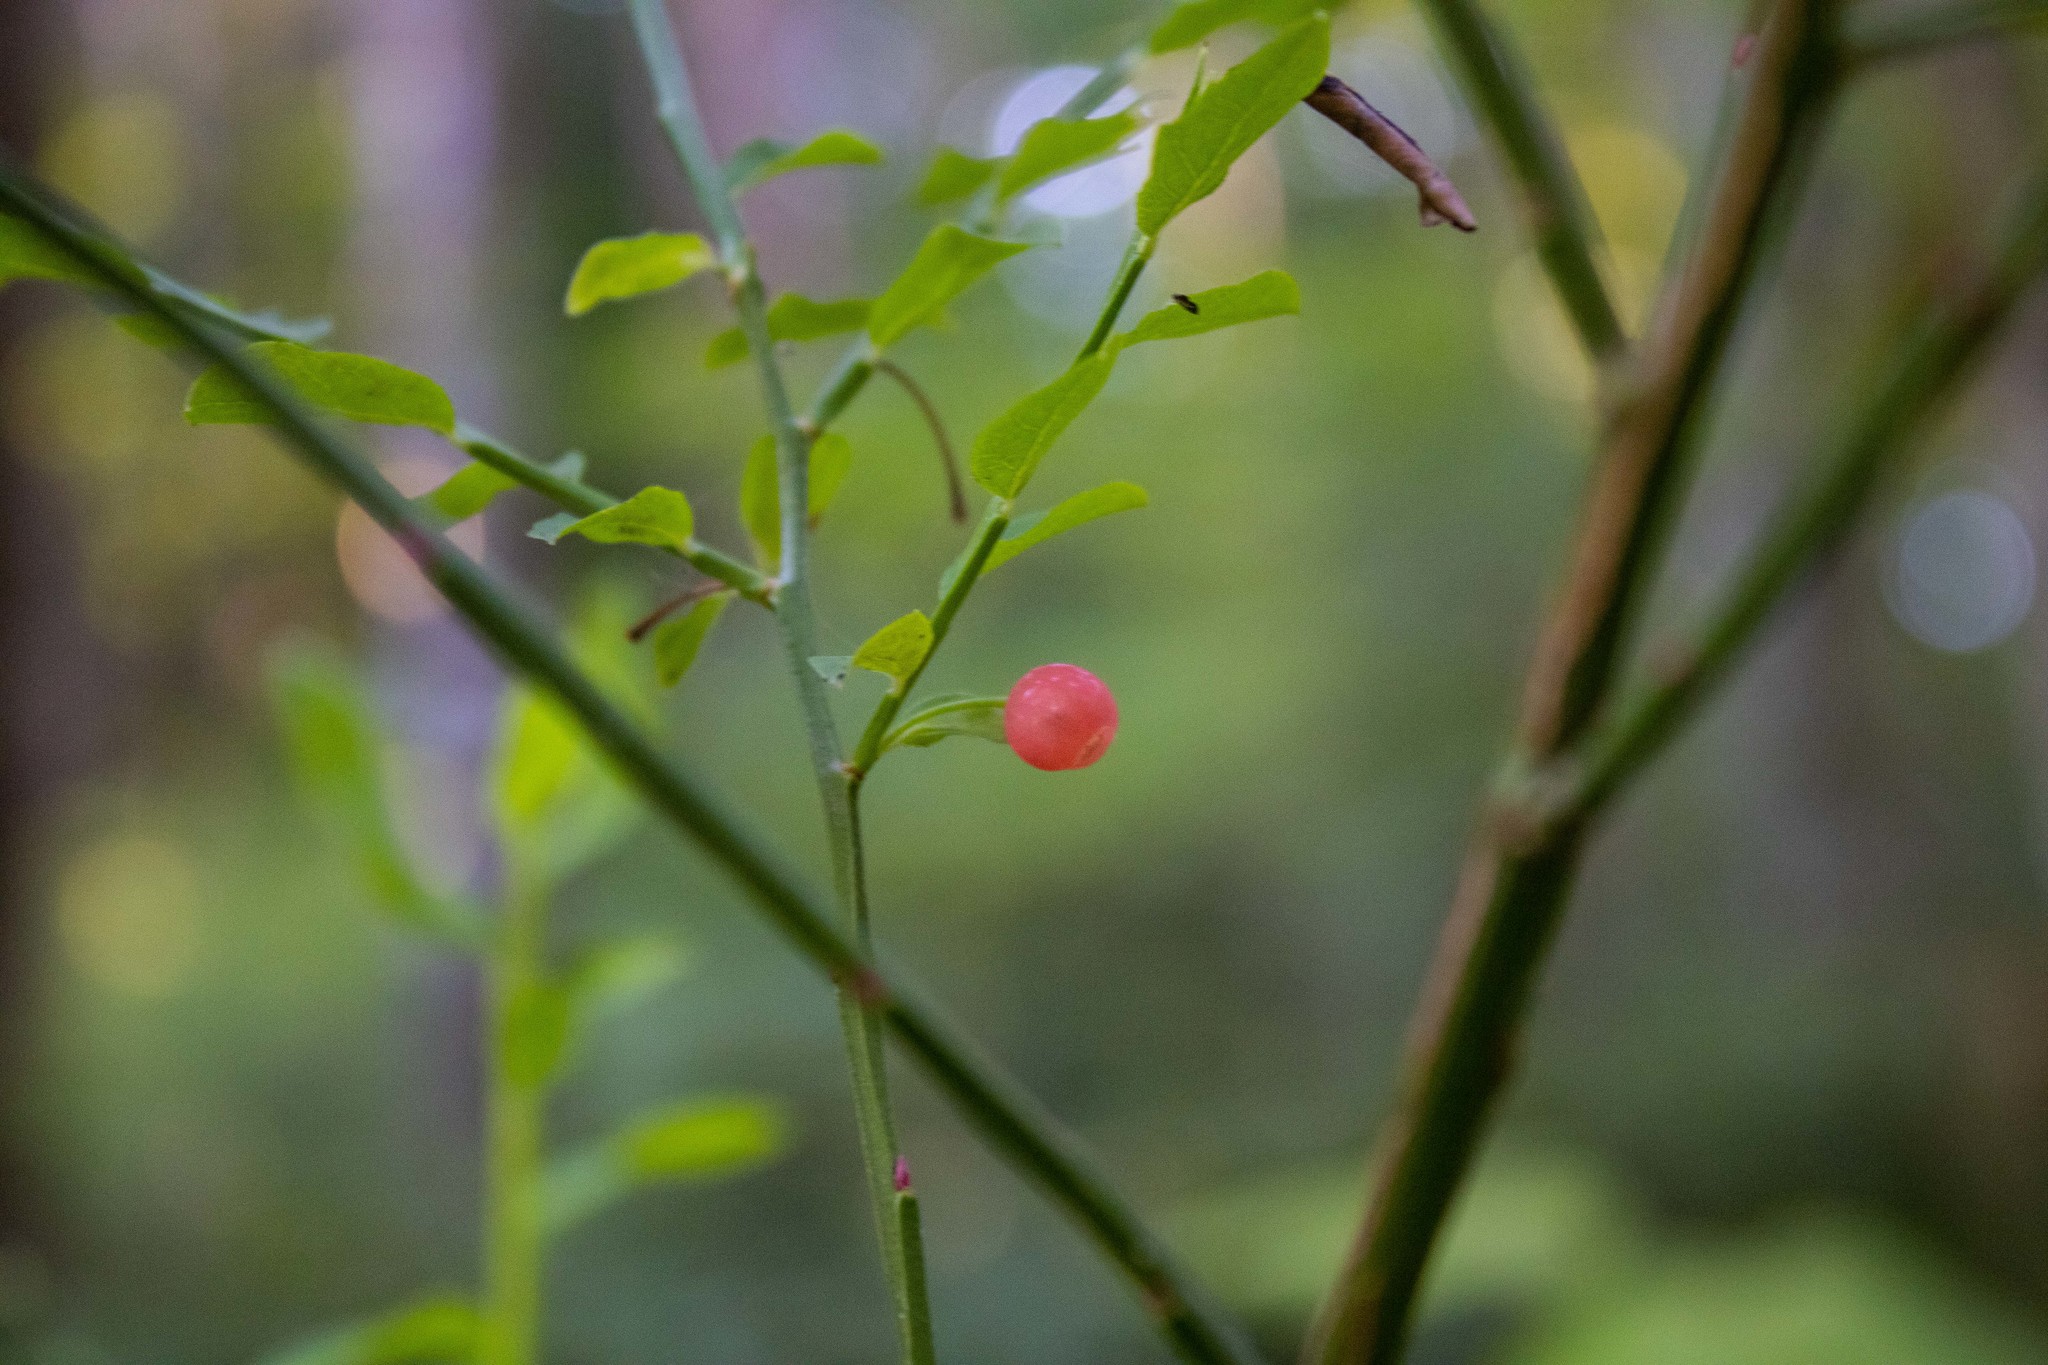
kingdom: Plantae
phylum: Tracheophyta
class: Magnoliopsida
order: Ericales
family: Ericaceae
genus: Vaccinium
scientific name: Vaccinium parvifolium
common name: Red-huckleberry
